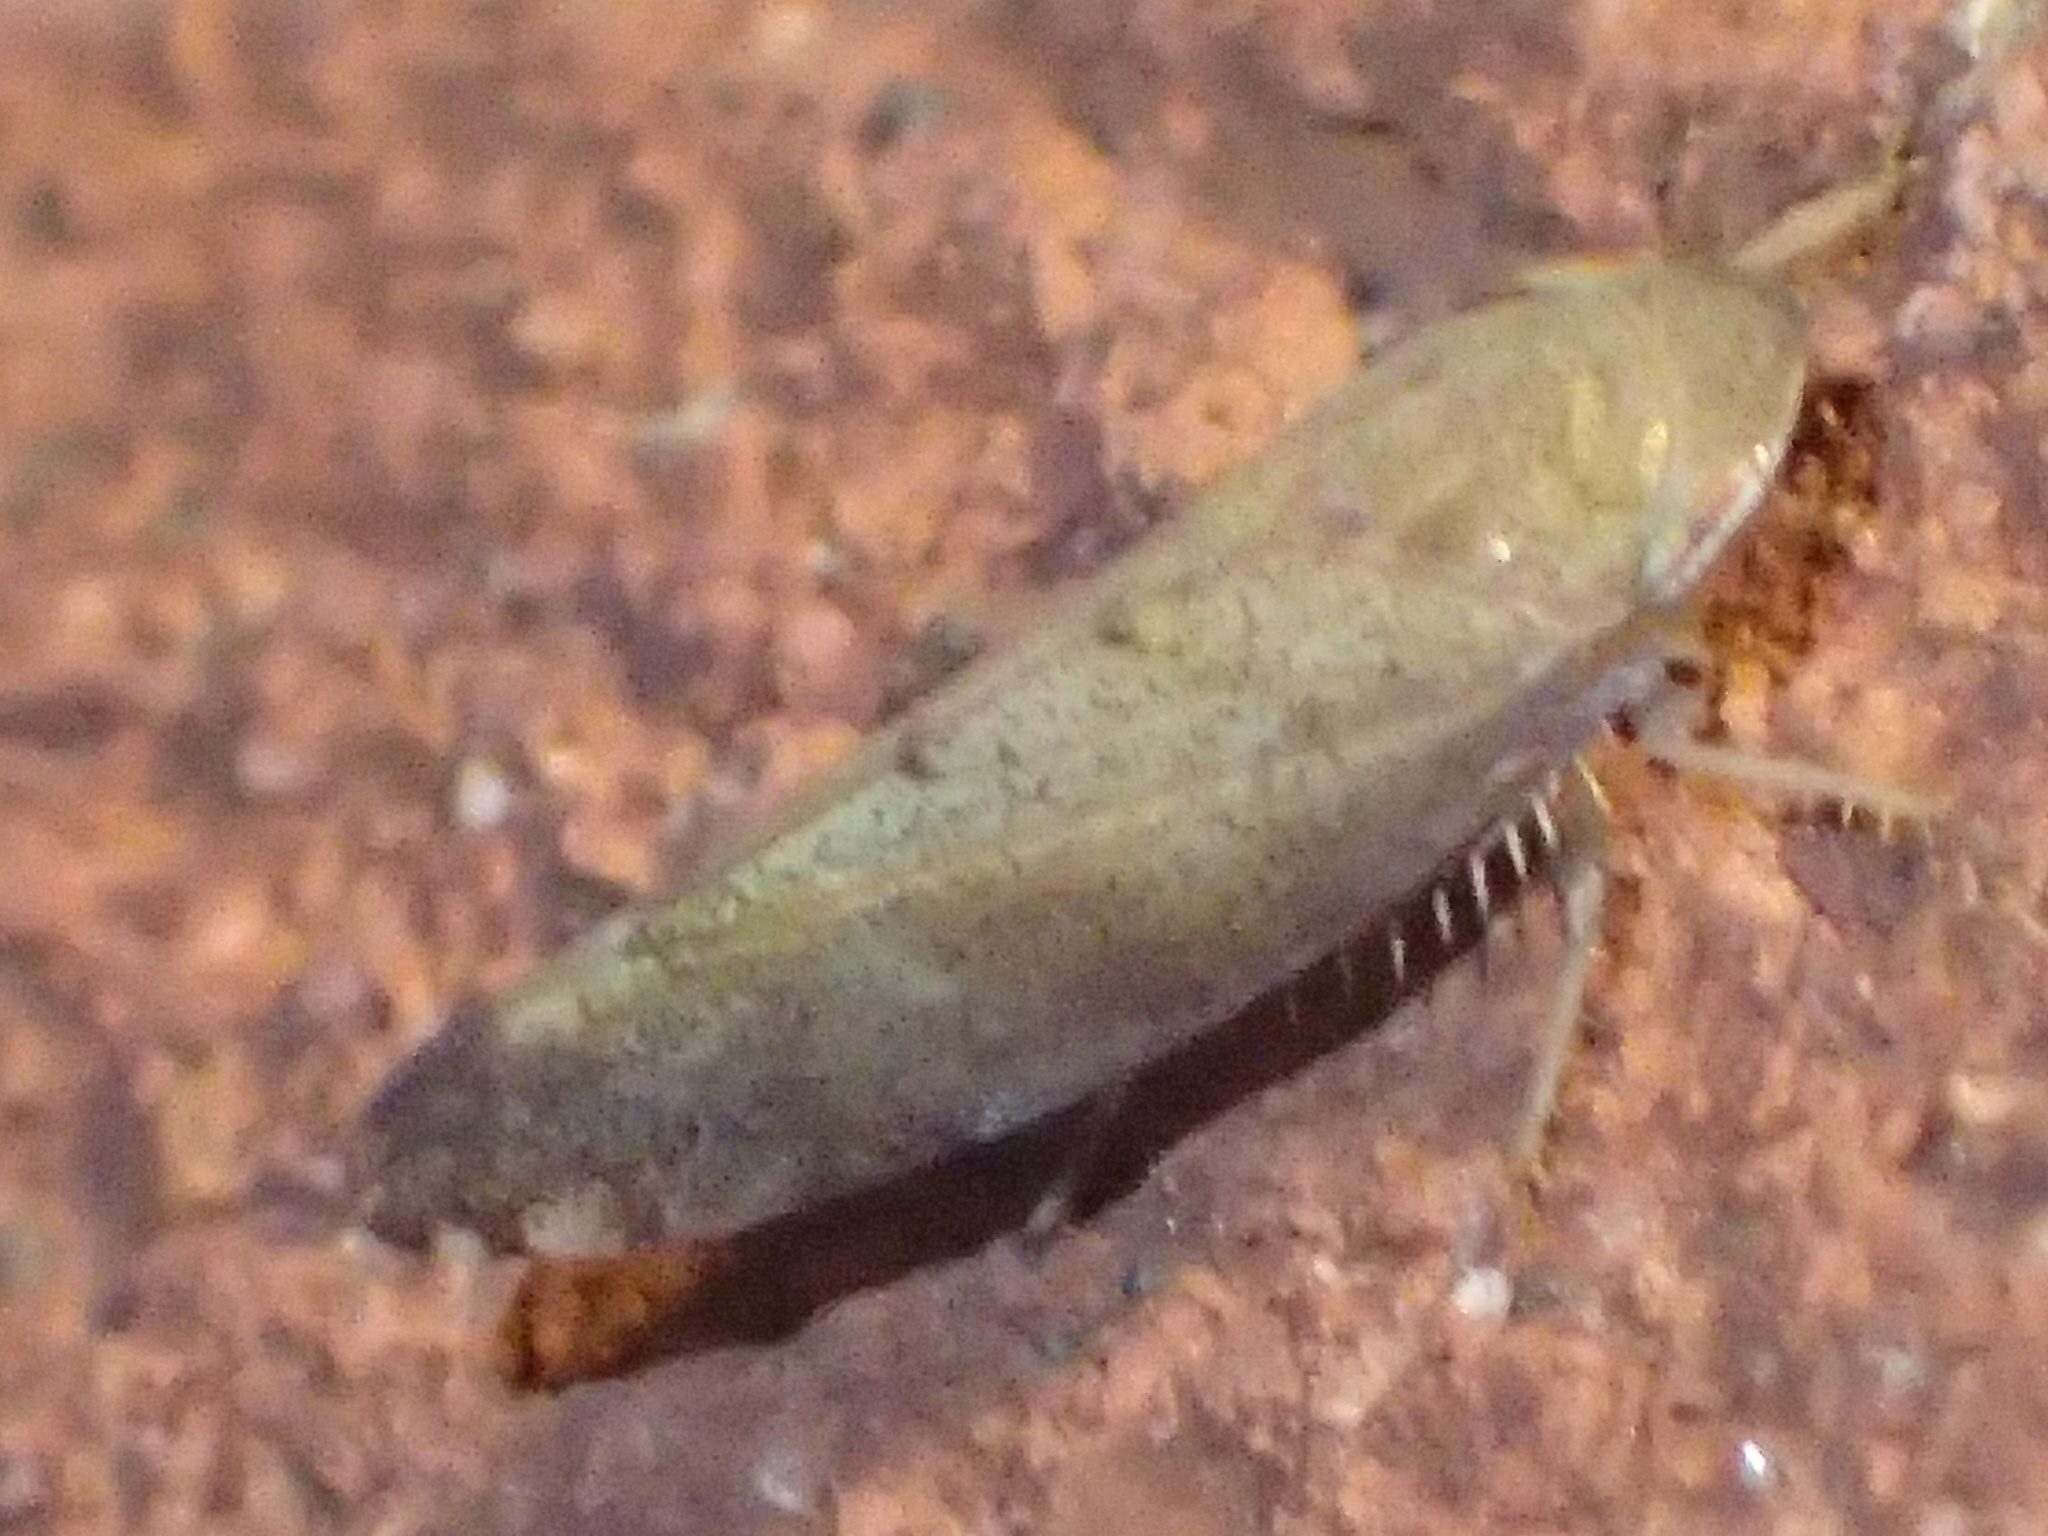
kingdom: Animalia
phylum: Arthropoda
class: Insecta
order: Hemiptera
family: Cicadellidae
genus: Fieberiella
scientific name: Fieberiella florii
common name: Flor’s leafhopper
